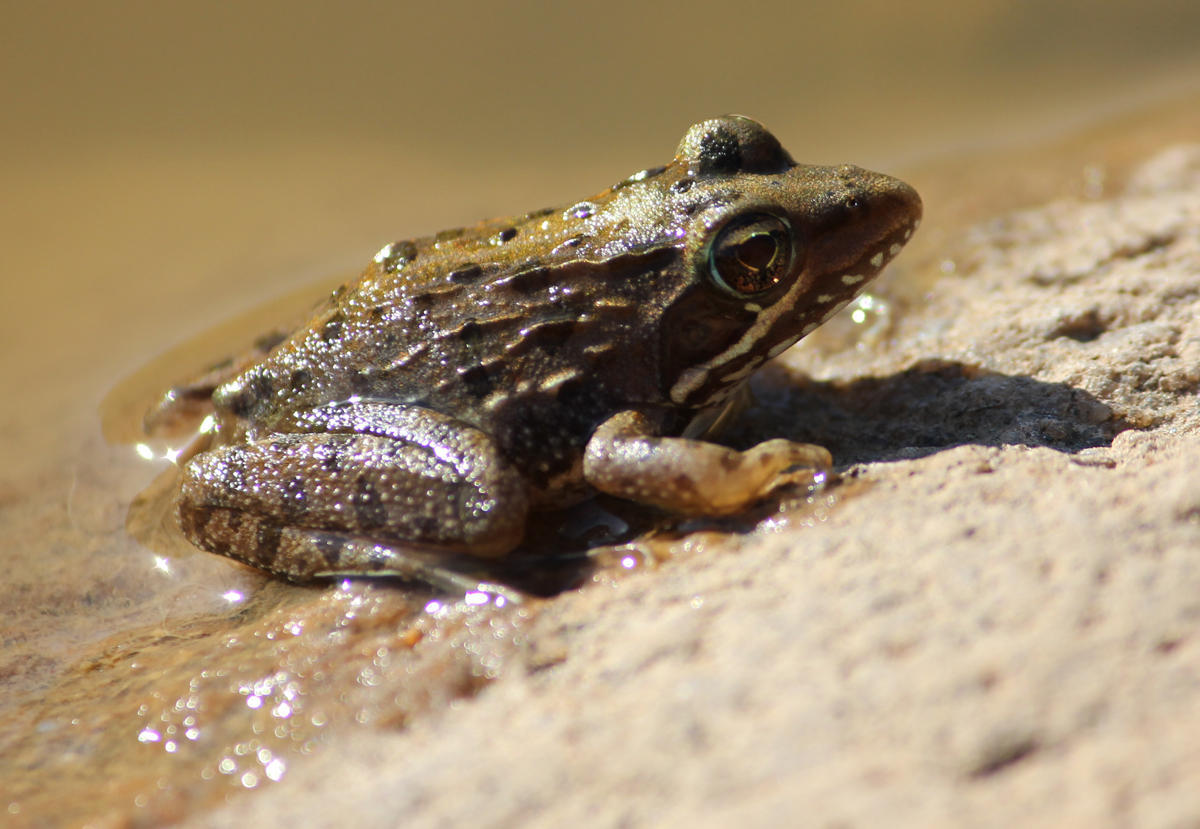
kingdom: Animalia
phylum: Chordata
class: Amphibia
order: Anura
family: Pyxicephalidae
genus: Amietia
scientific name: Amietia delalandii
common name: Delalande's river frog
